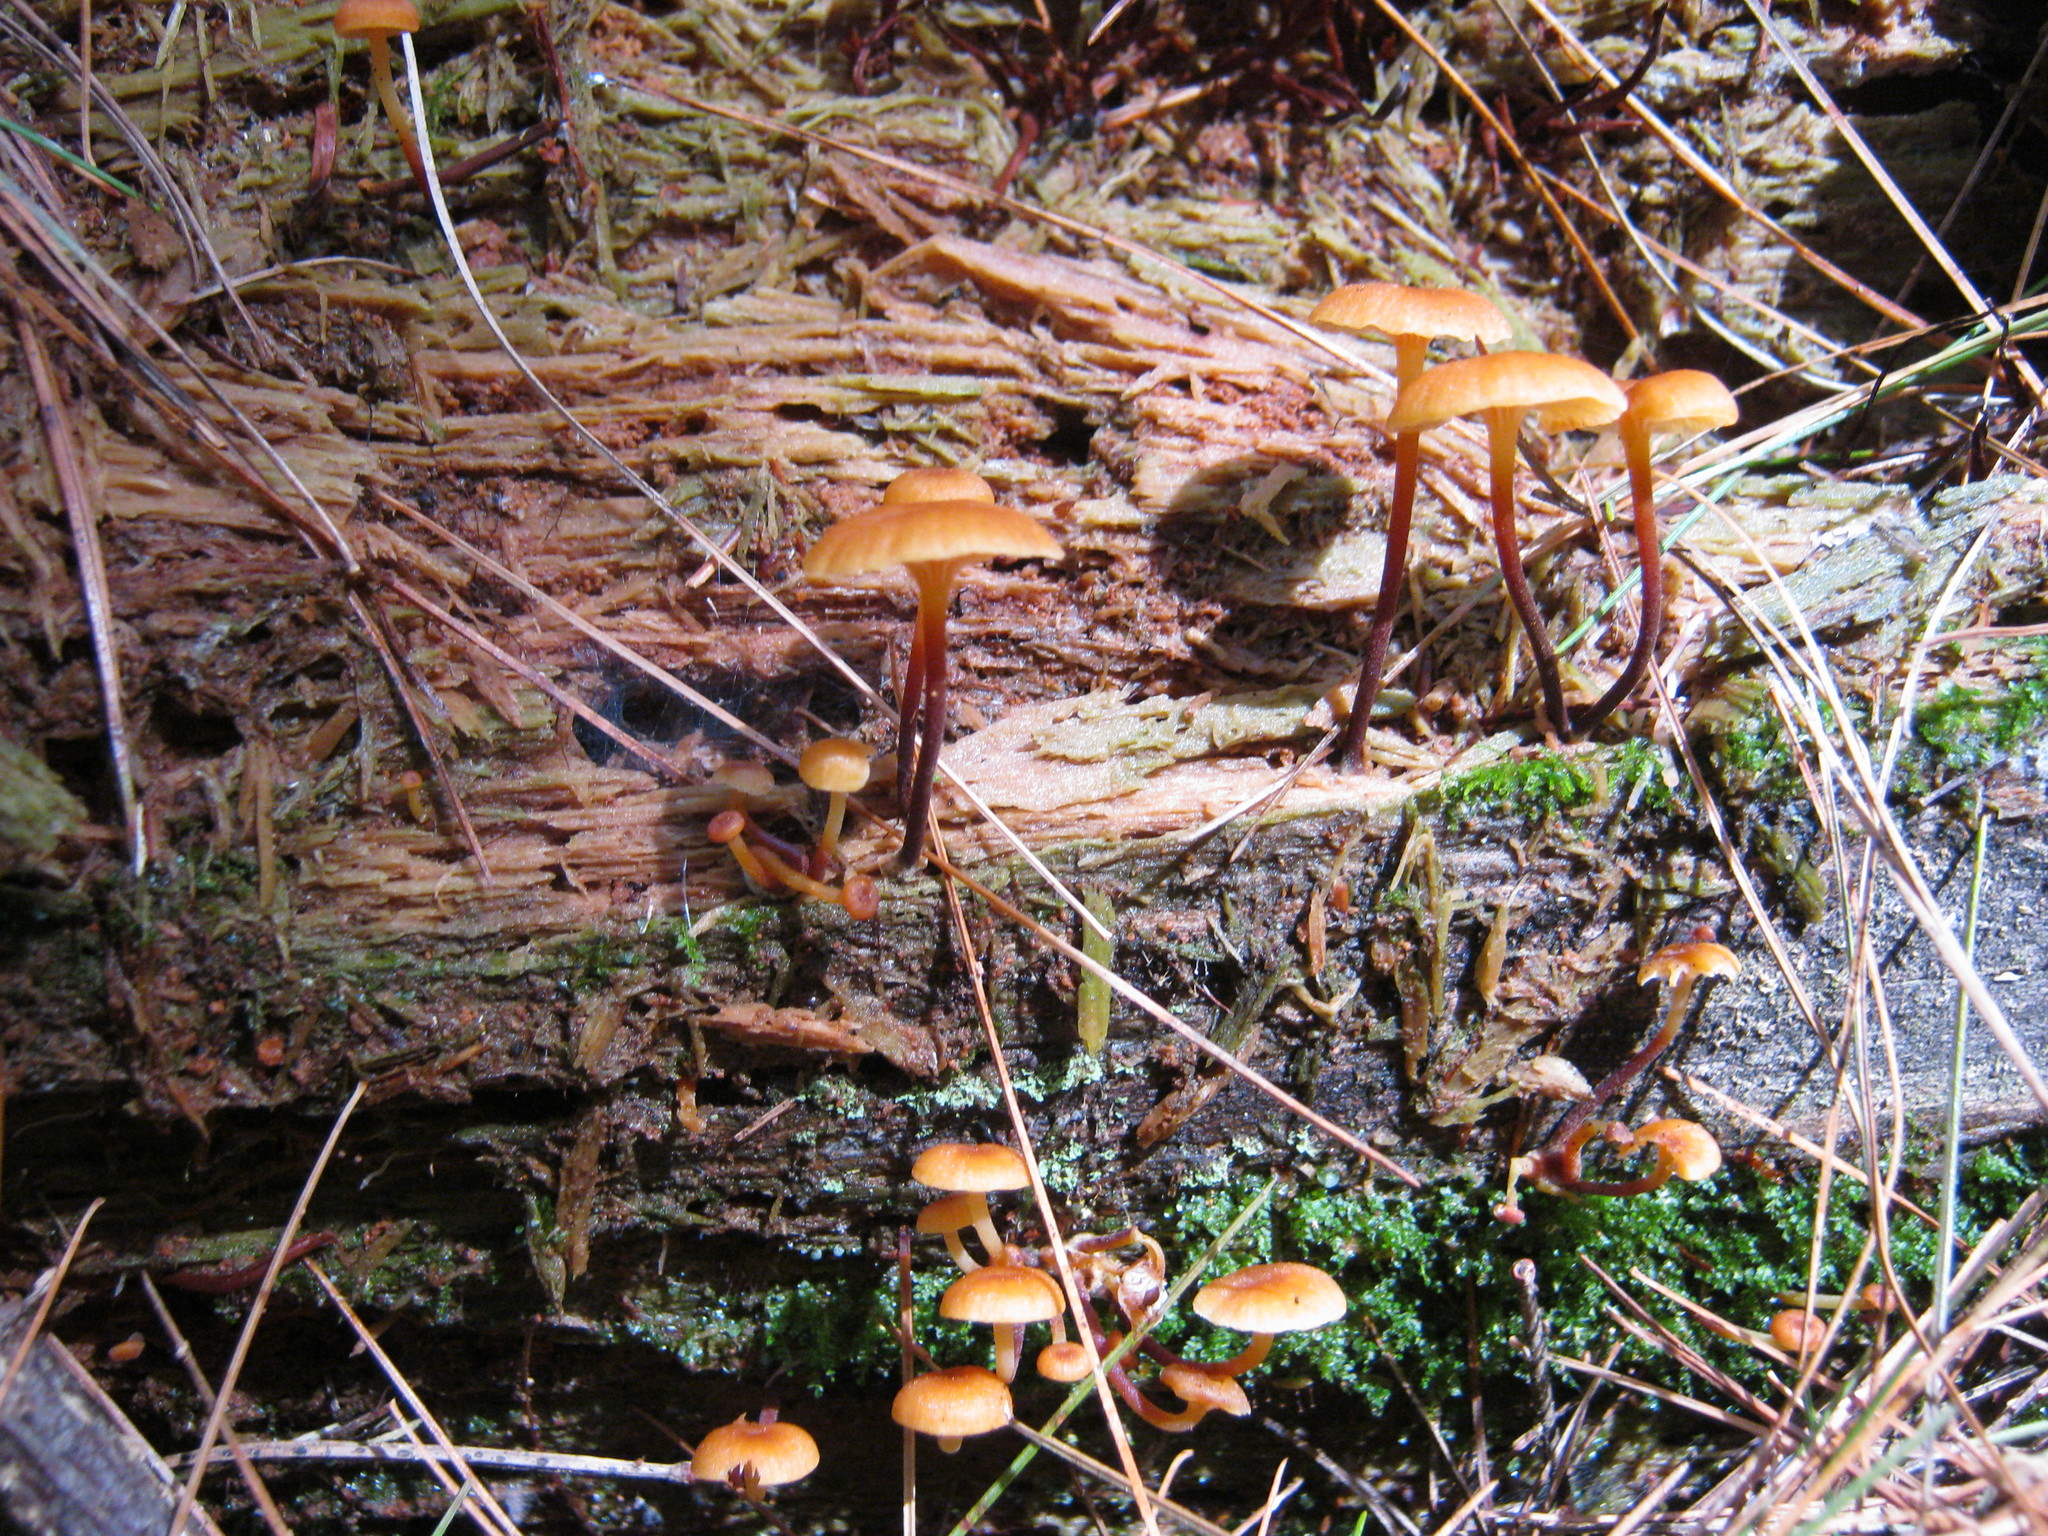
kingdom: Fungi
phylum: Basidiomycota
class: Agaricomycetes
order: Agaricales
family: Mycenaceae
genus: Xeromphalina
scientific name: Xeromphalina campanella
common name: Pinewood gingertail
